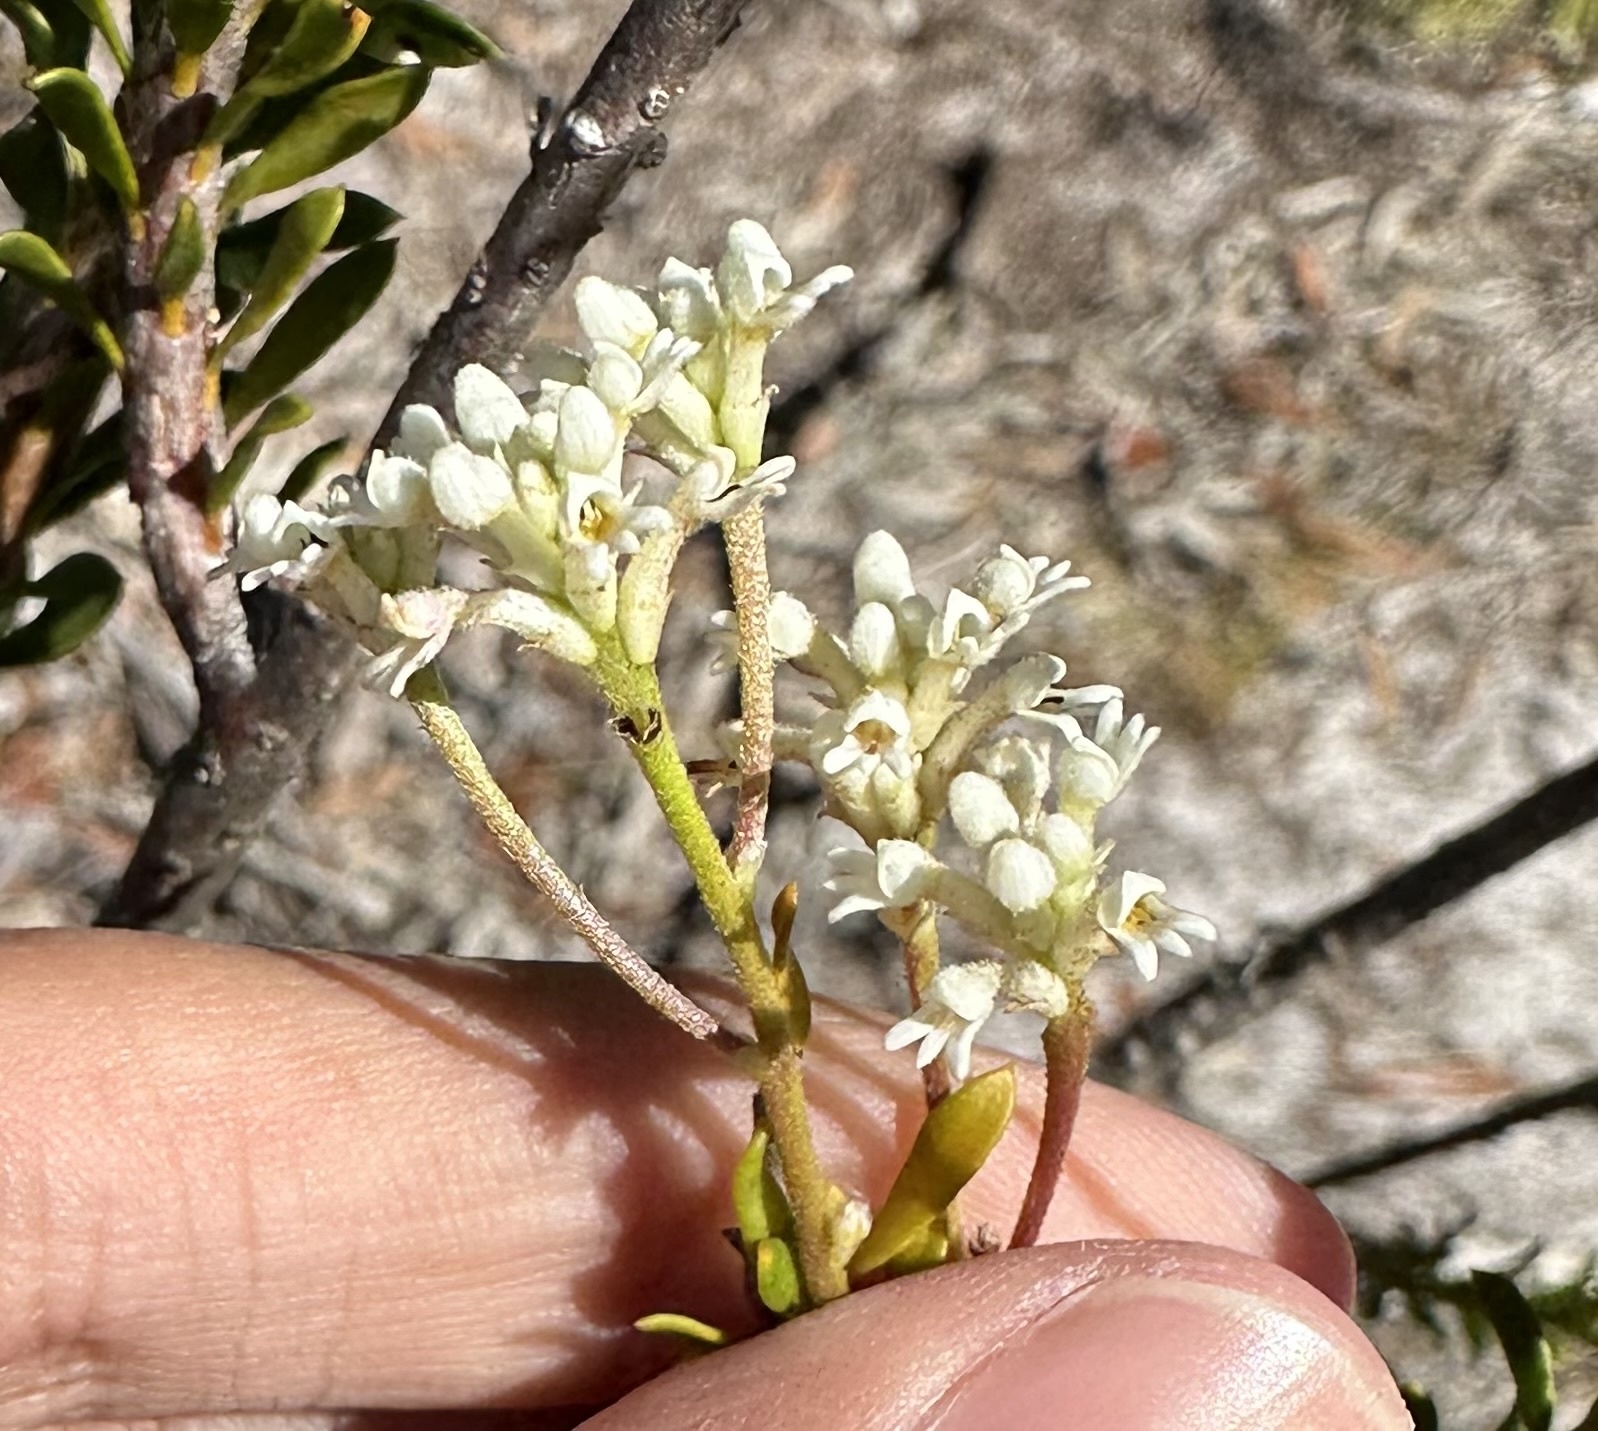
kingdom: Plantae
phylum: Tracheophyta
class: Magnoliopsida
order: Proteales
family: Proteaceae
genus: Conospermum
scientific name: Conospermum taxifolium
